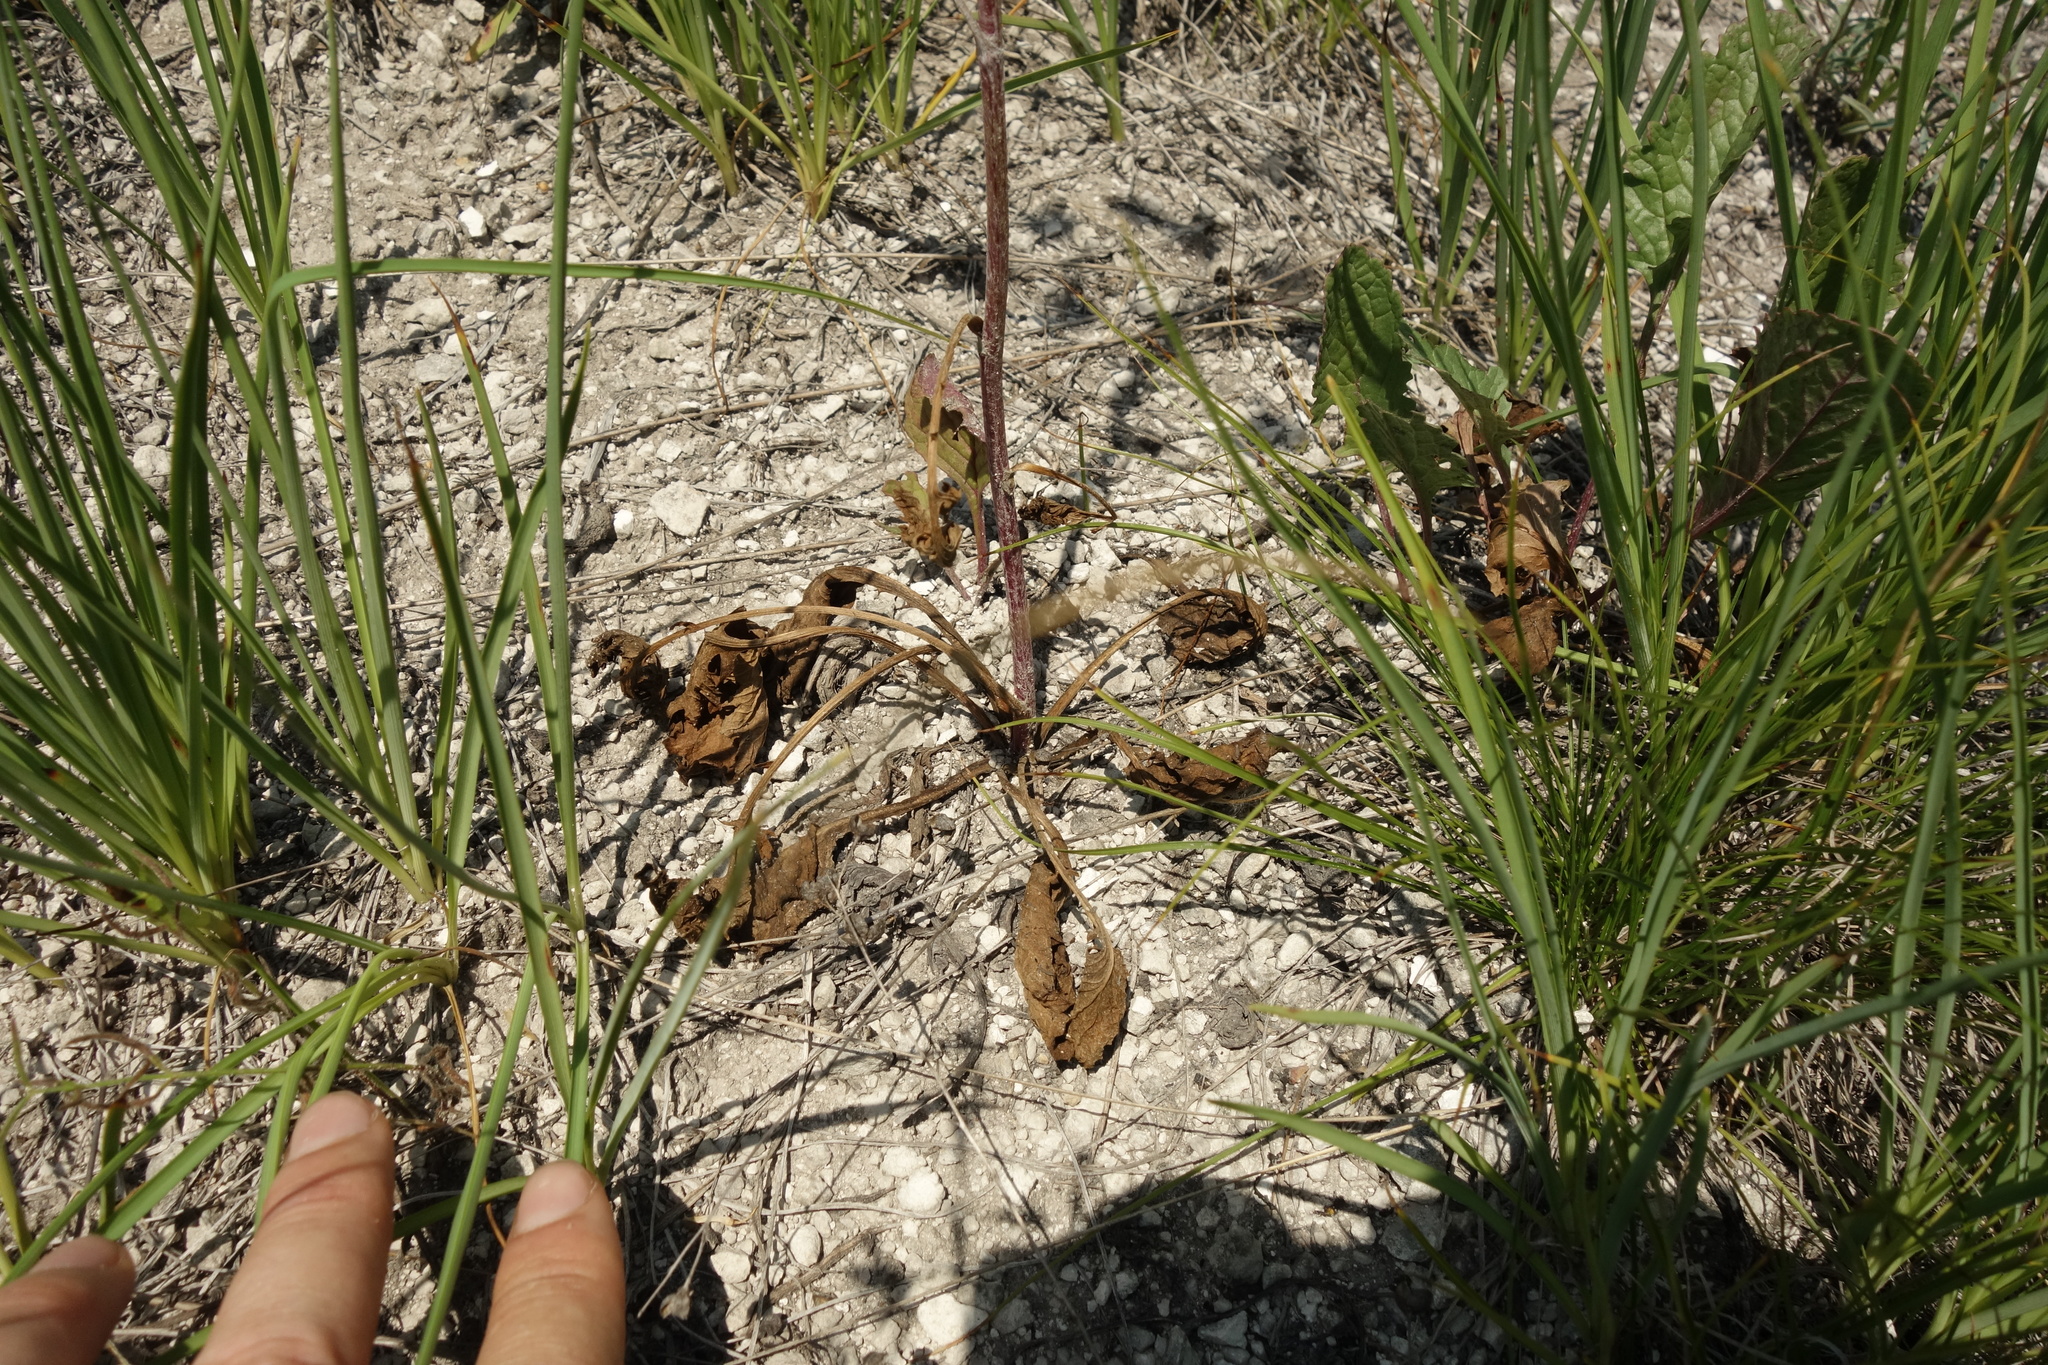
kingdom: Plantae
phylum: Tracheophyta
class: Magnoliopsida
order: Asterales
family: Asteraceae
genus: Jacobaea
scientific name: Jacobaea vulgaris
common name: Stinking willie
